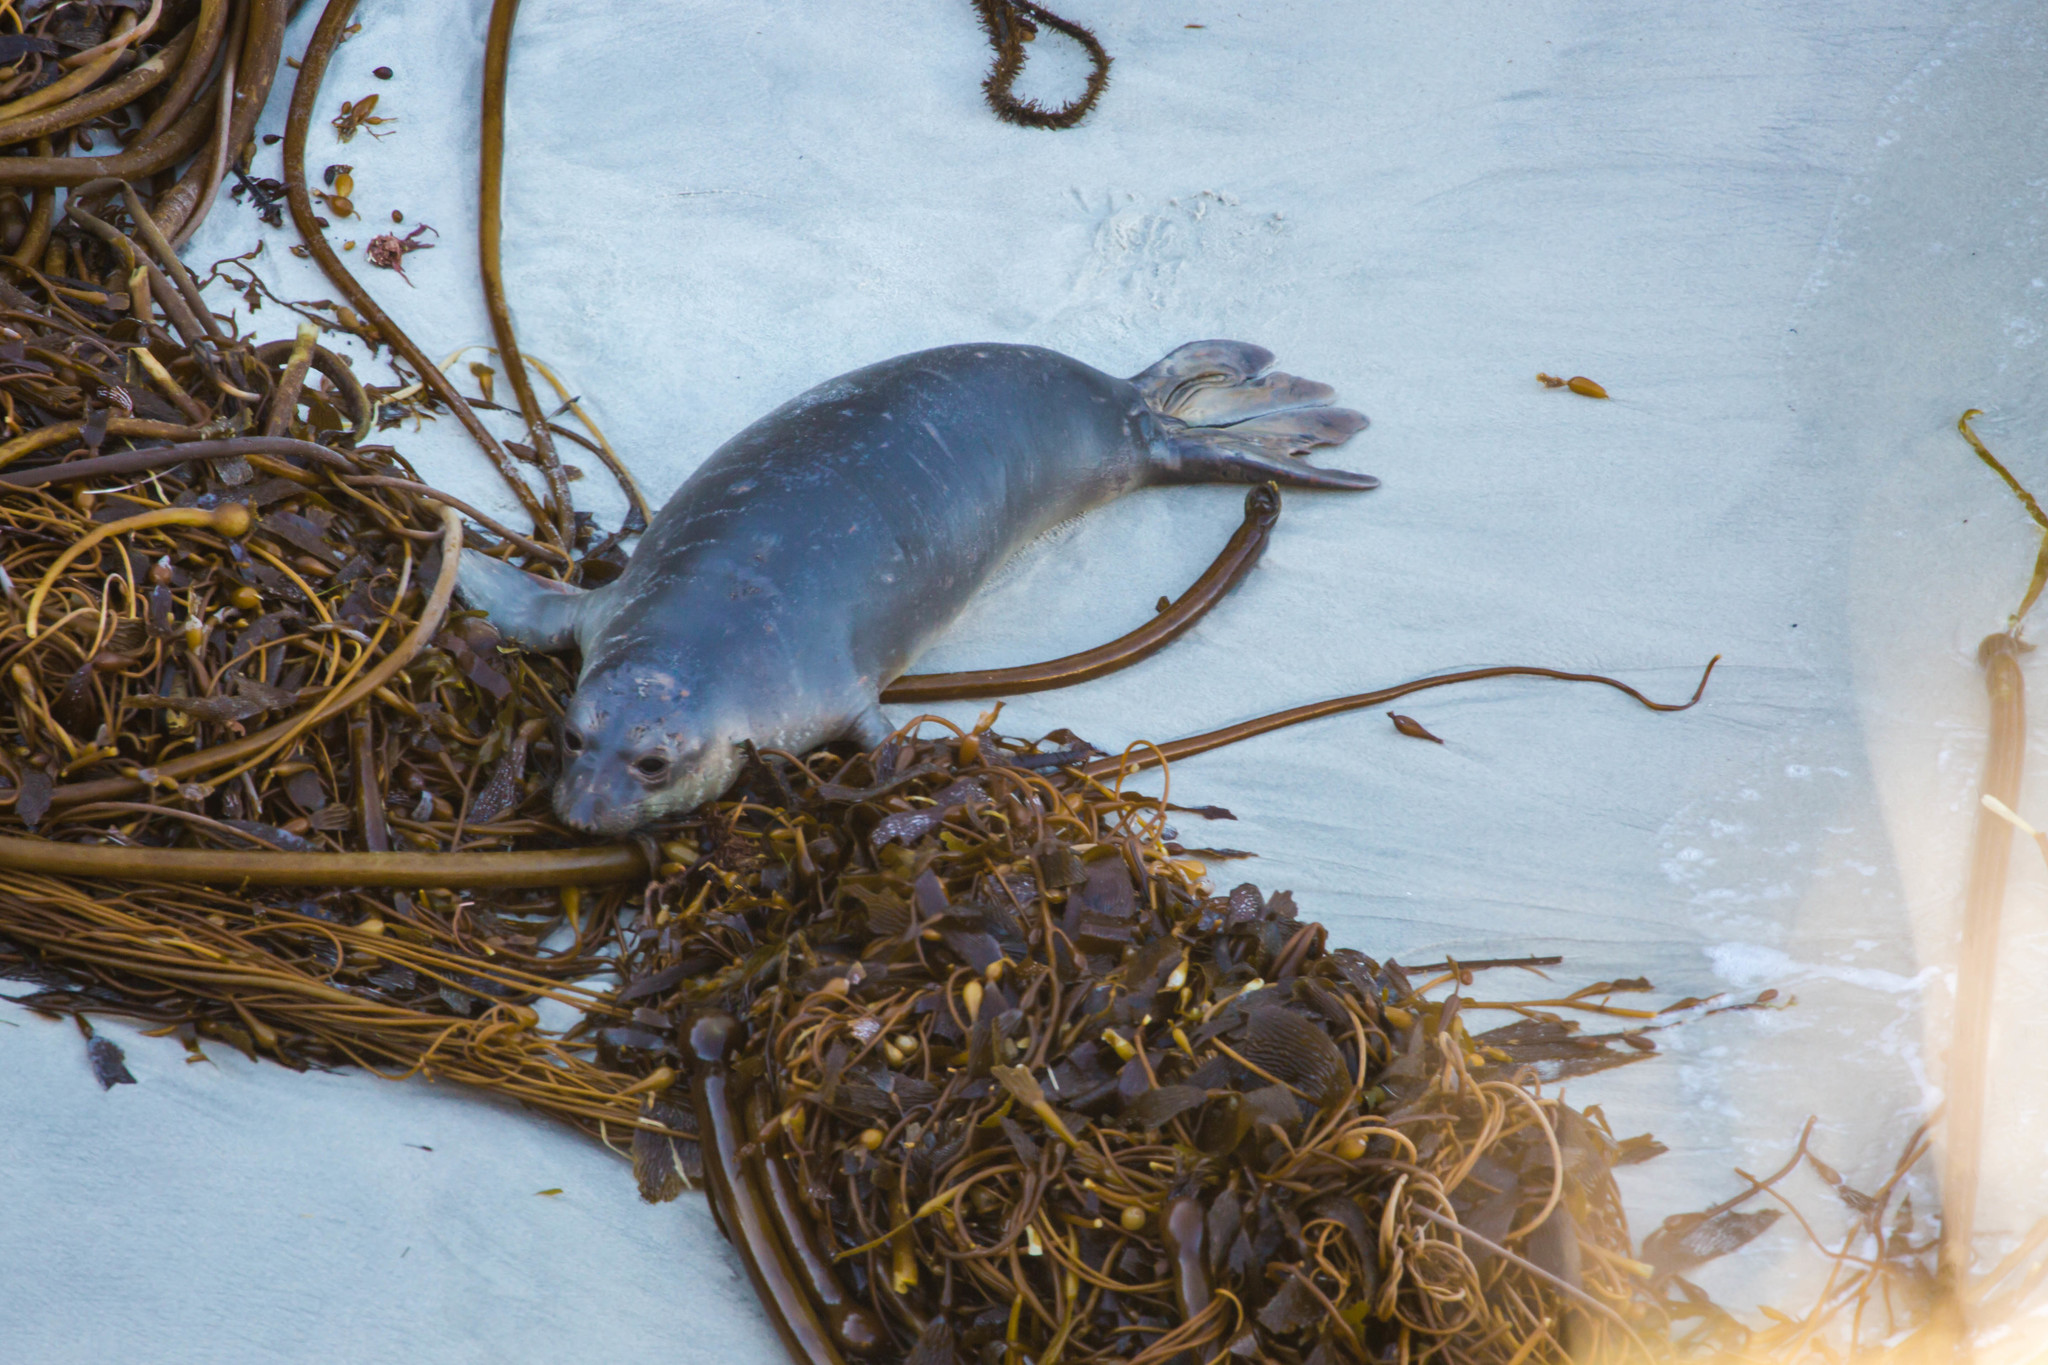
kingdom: Animalia
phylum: Chordata
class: Mammalia
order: Carnivora
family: Phocidae
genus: Mirounga
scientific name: Mirounga angustirostris
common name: Northern elephant seal
